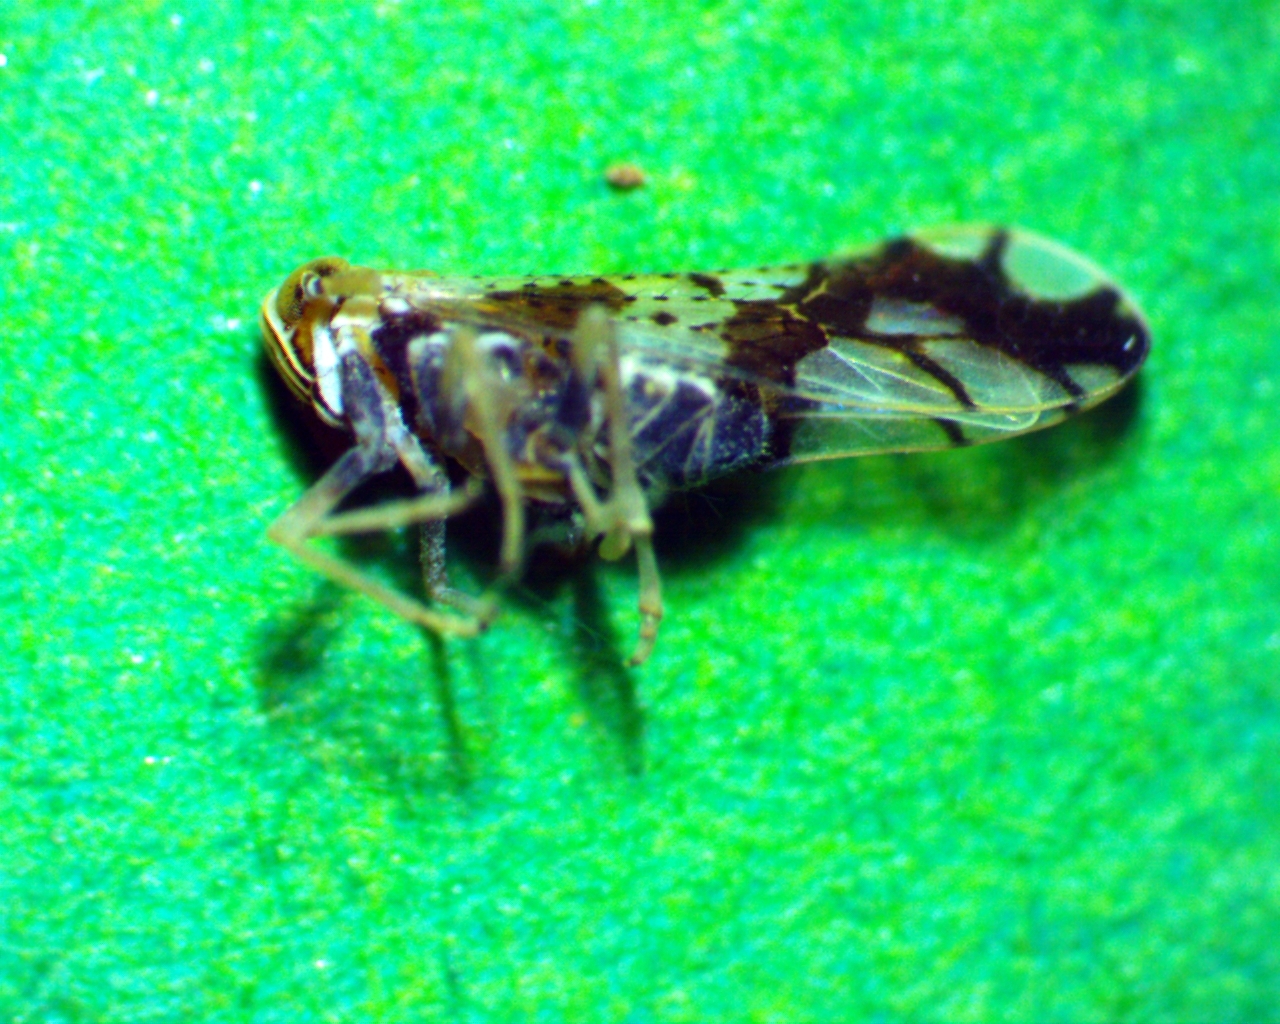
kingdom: Animalia
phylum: Arthropoda
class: Insecta
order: Hemiptera
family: Delphacidae
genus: Liburniella
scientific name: Liburniella ornata
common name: Ornate planthopper
